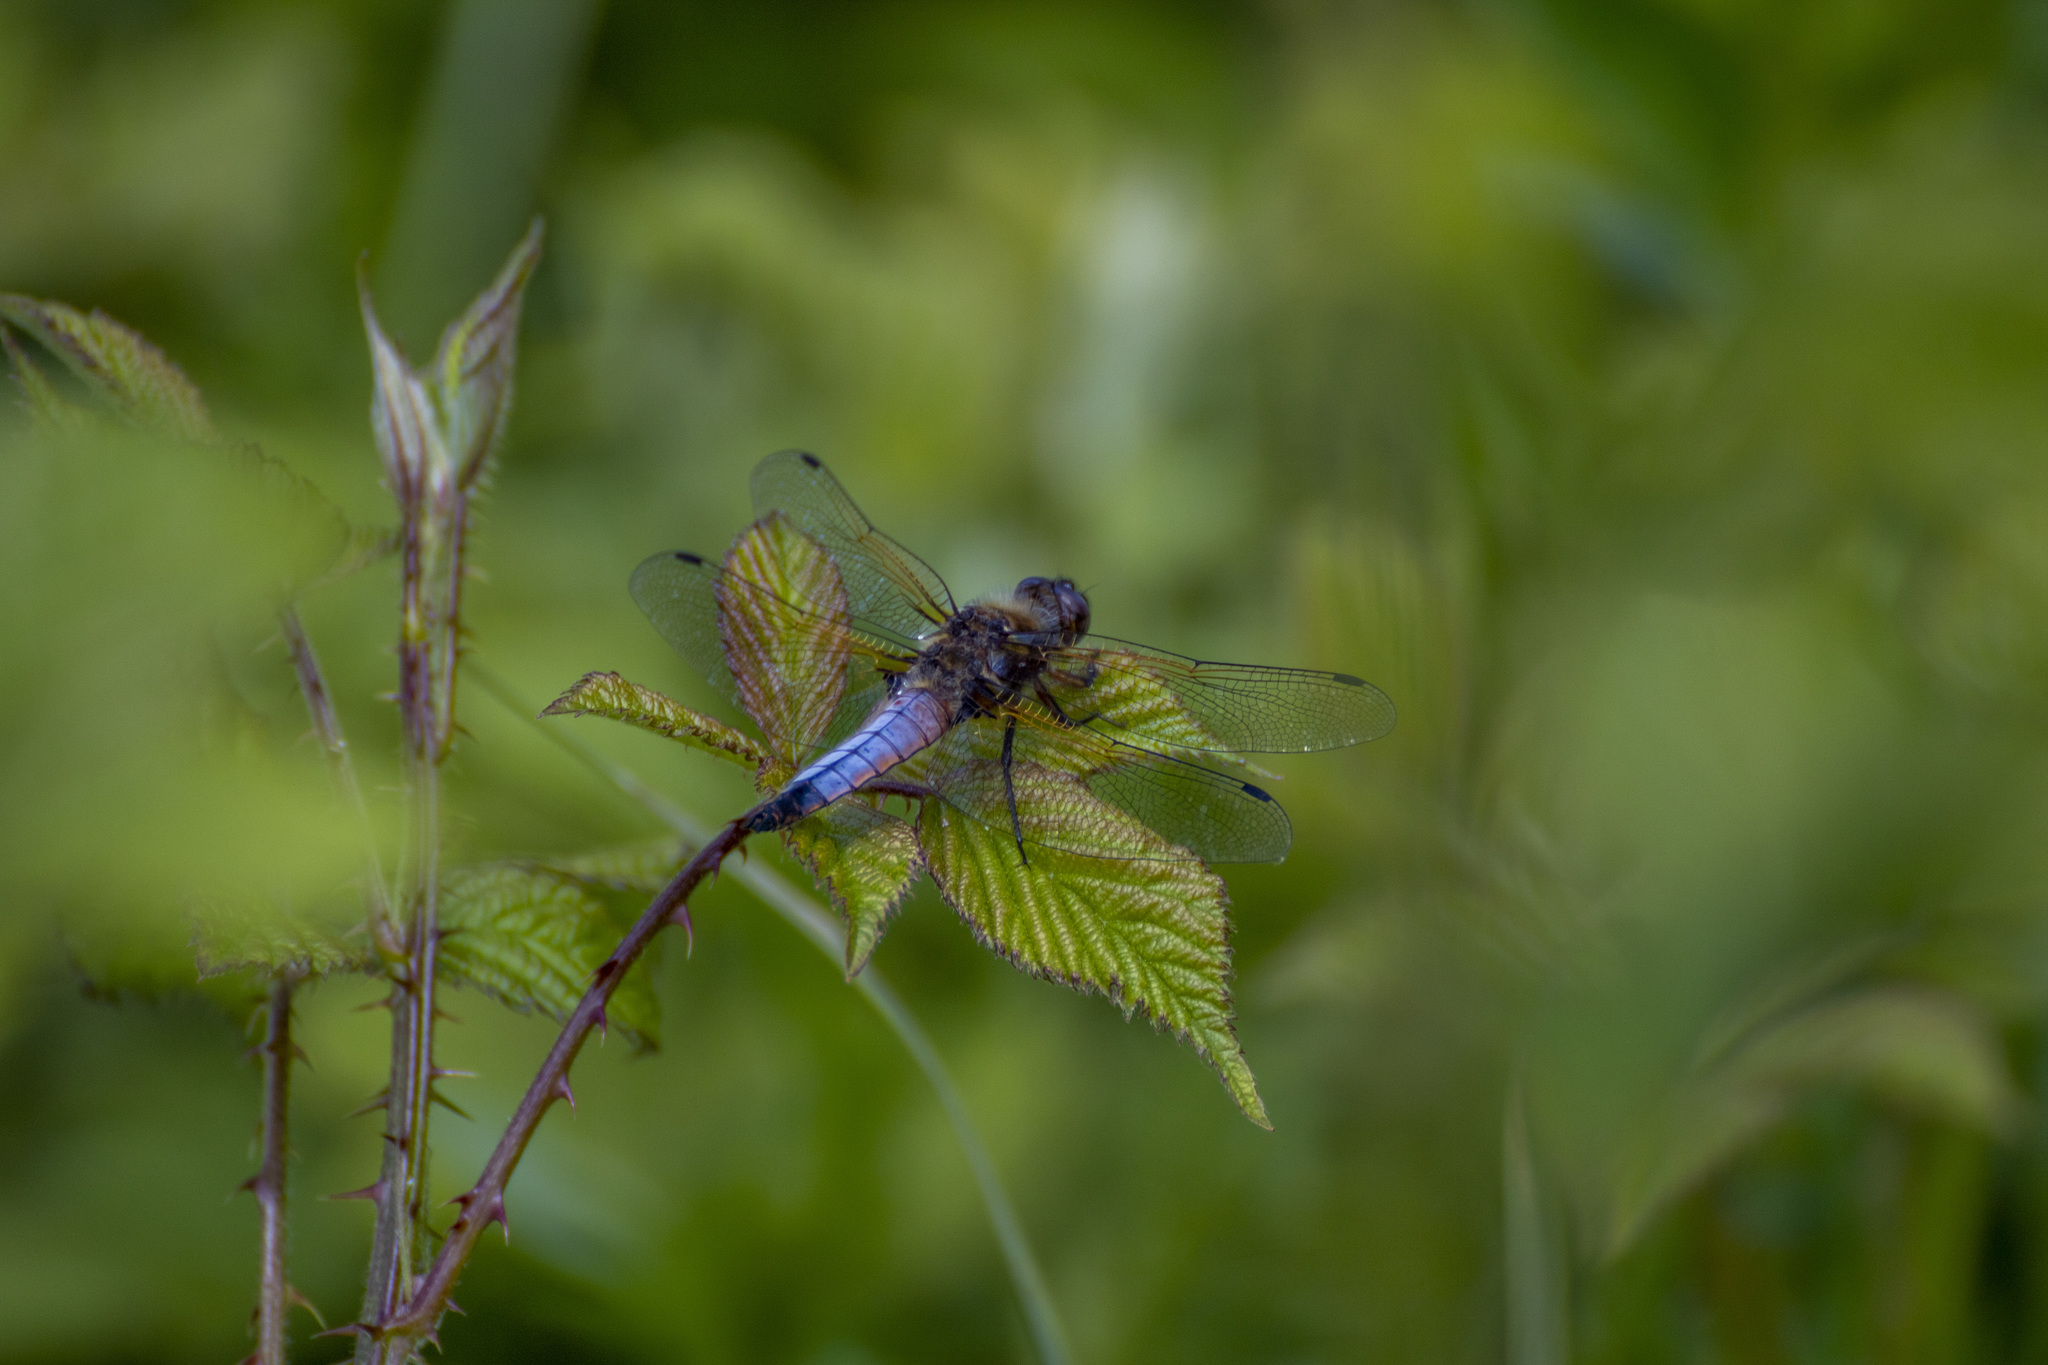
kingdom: Animalia
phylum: Arthropoda
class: Insecta
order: Odonata
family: Libellulidae
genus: Libellula
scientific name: Libellula fulva
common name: Blue chaser
